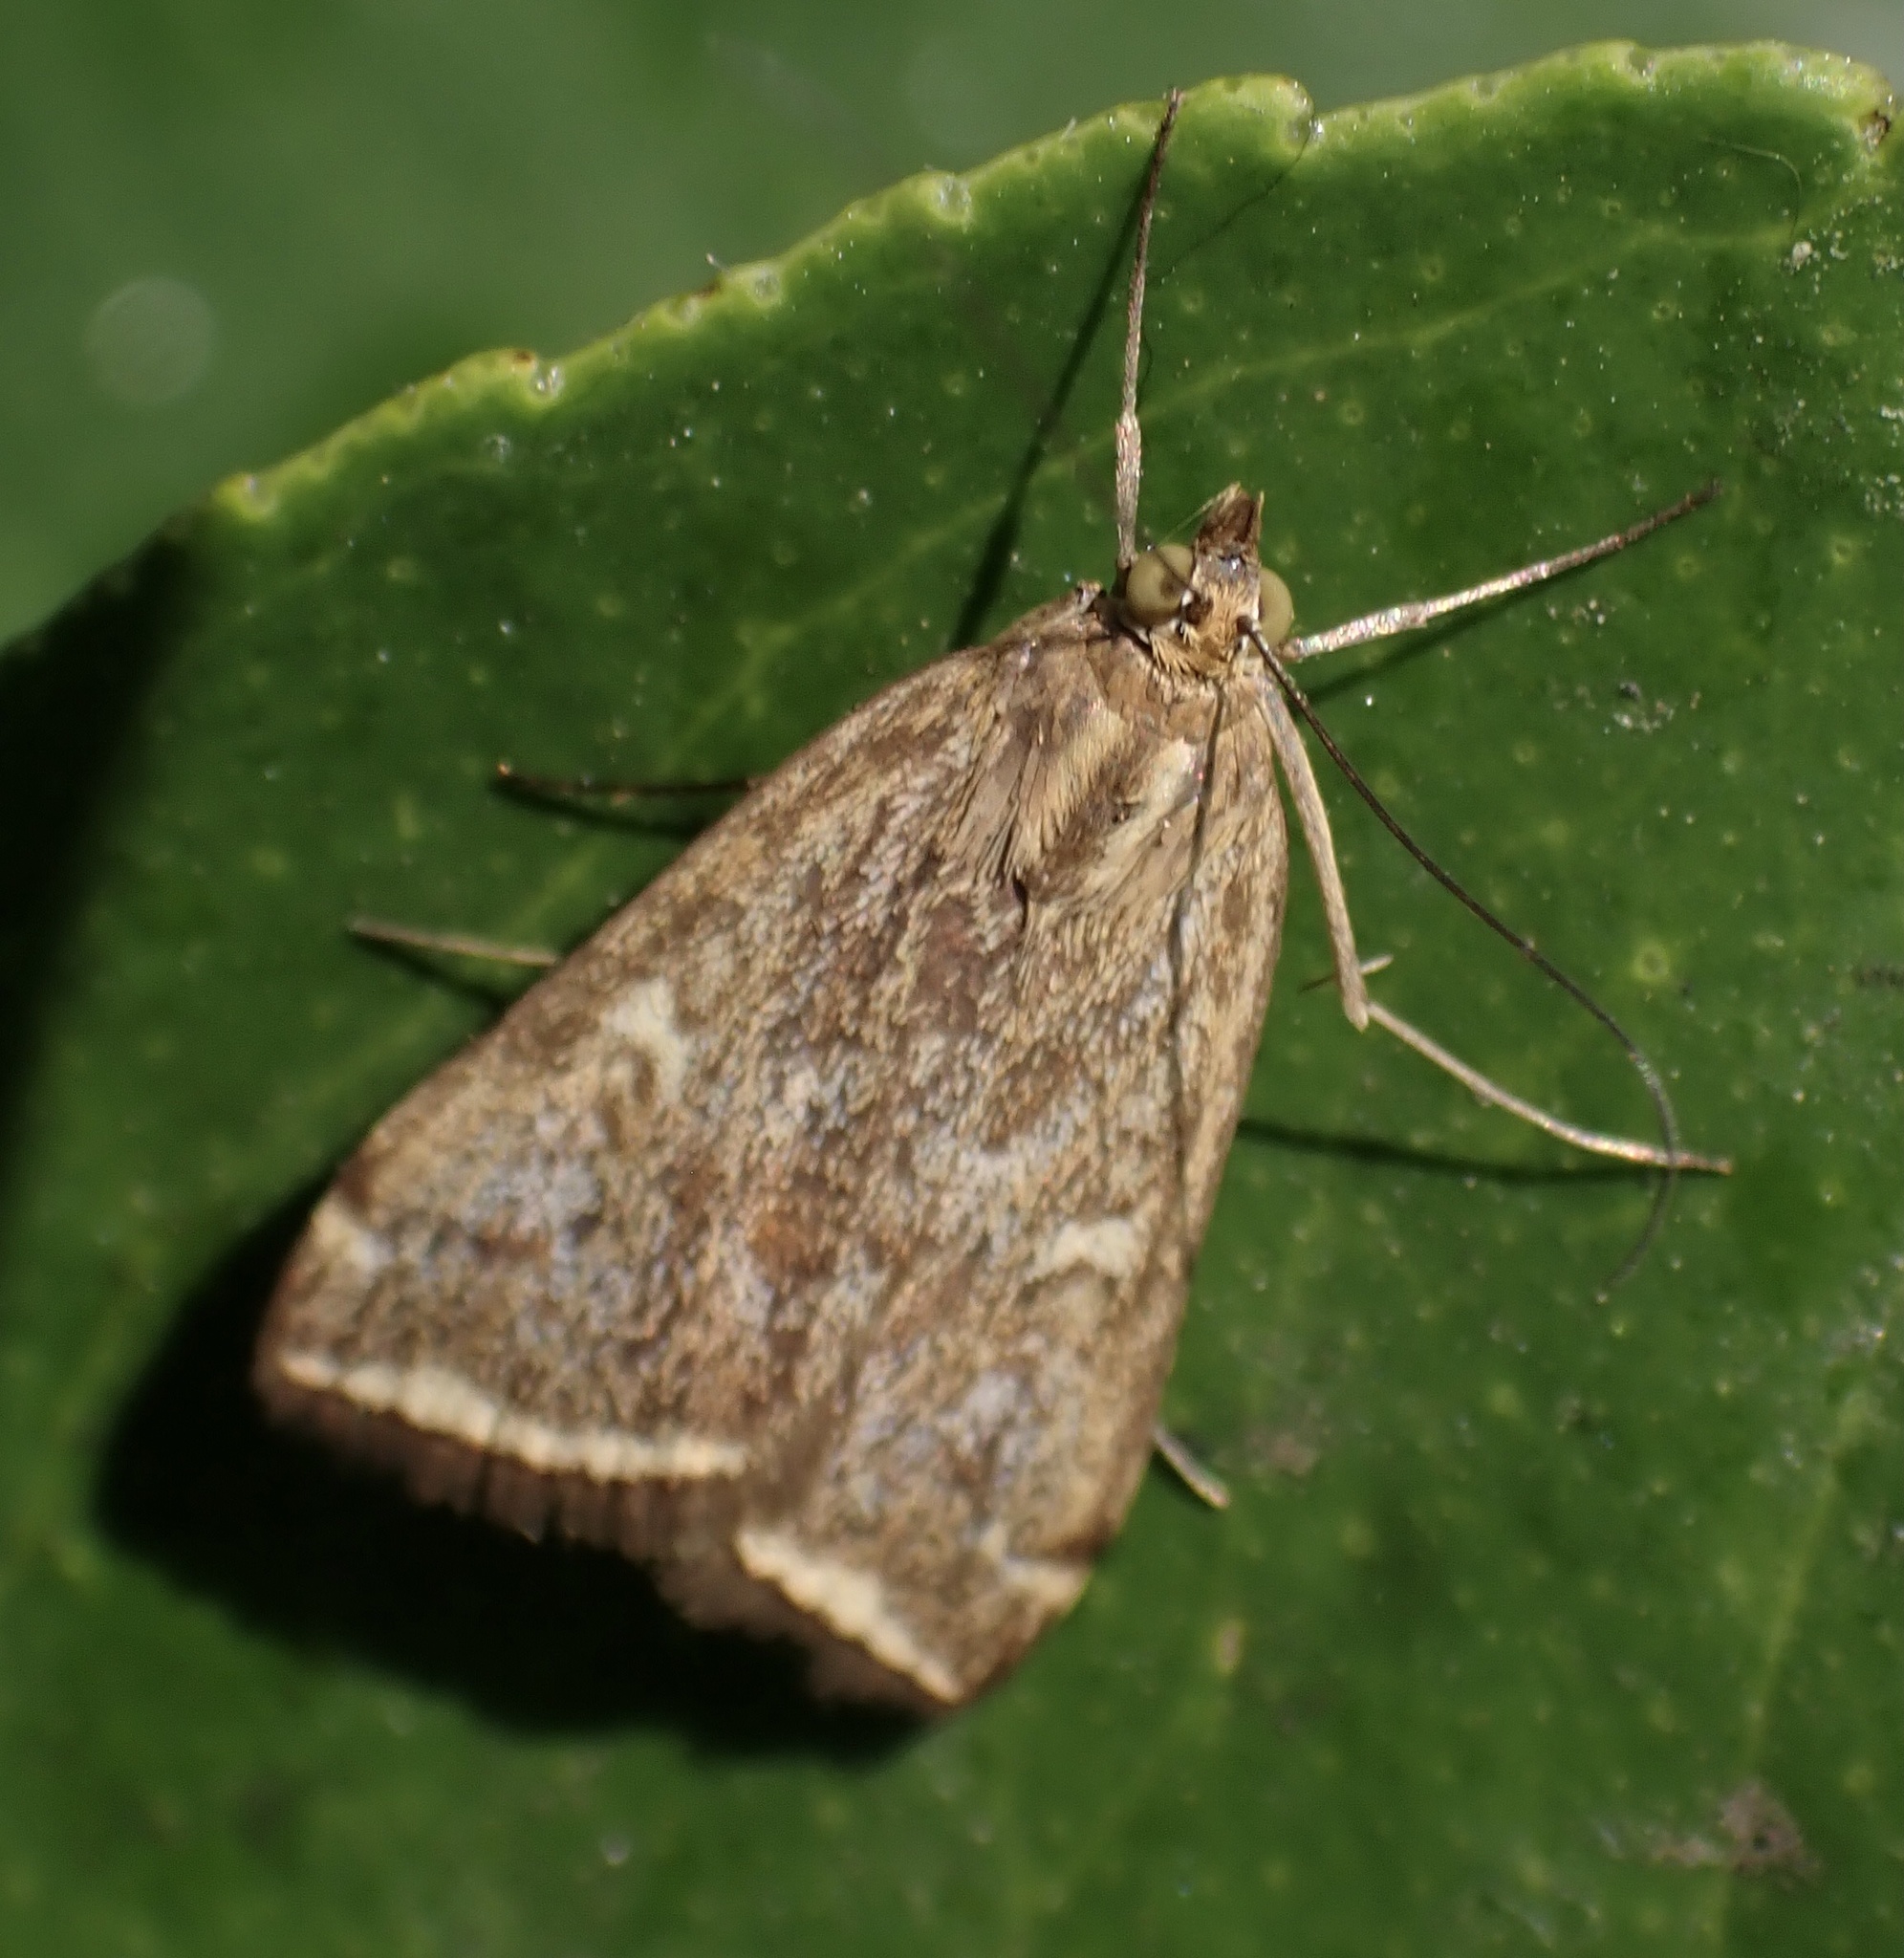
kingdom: Animalia
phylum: Arthropoda
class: Insecta
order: Lepidoptera
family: Crambidae
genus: Loxostege
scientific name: Loxostege sticticalis
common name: Crambid moth
